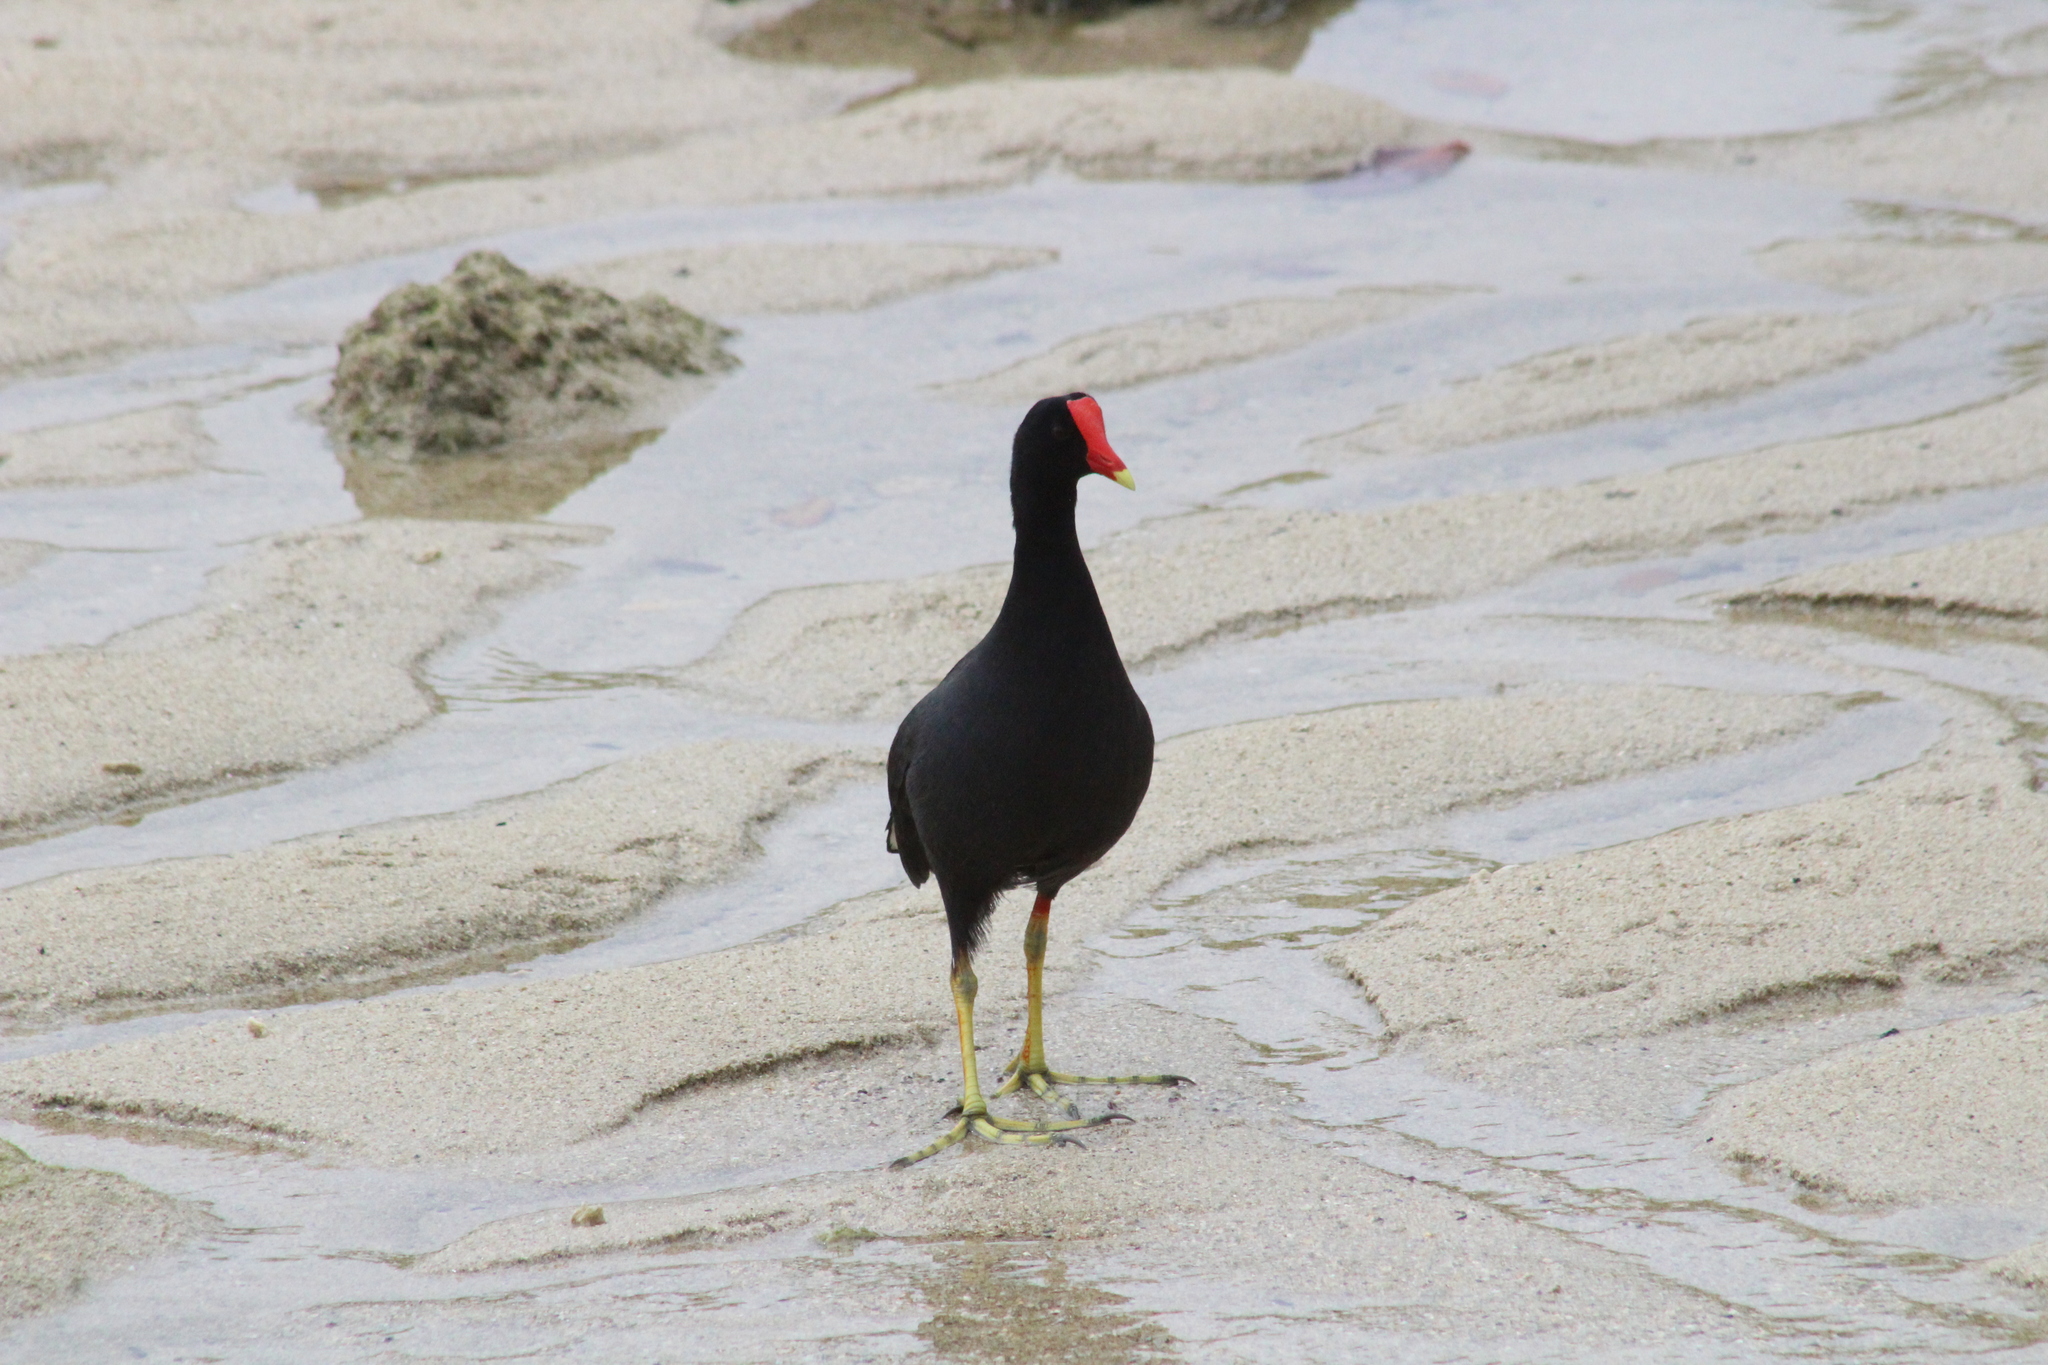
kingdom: Animalia
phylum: Chordata
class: Aves
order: Gruiformes
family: Rallidae
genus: Gallinula
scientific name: Gallinula chloropus
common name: Common moorhen
